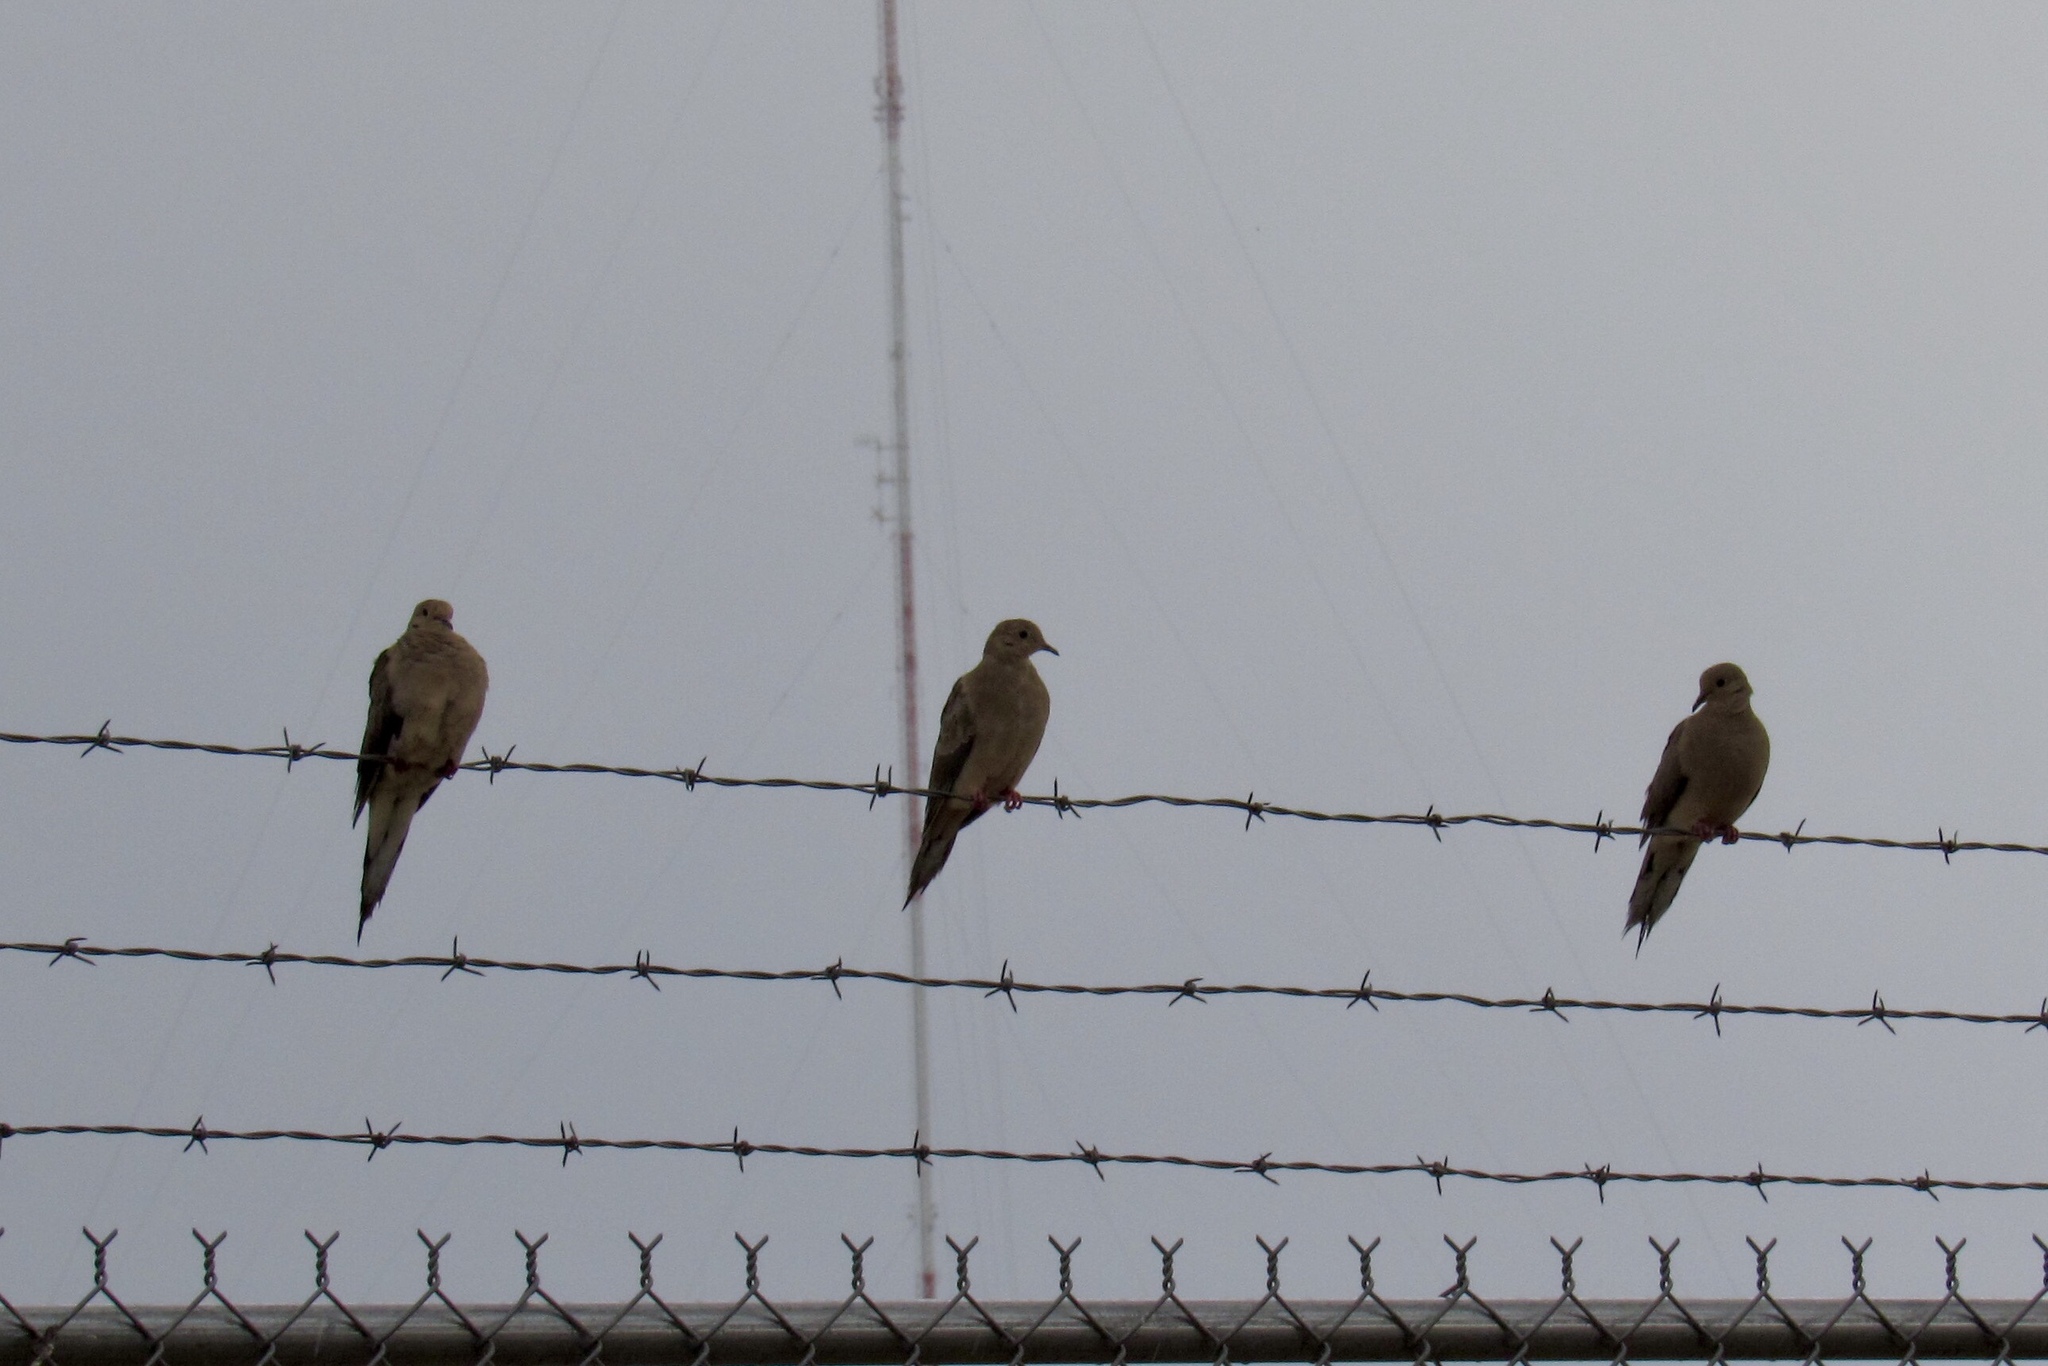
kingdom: Animalia
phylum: Chordata
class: Aves
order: Columbiformes
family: Columbidae
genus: Zenaida
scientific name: Zenaida macroura
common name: Mourning dove
